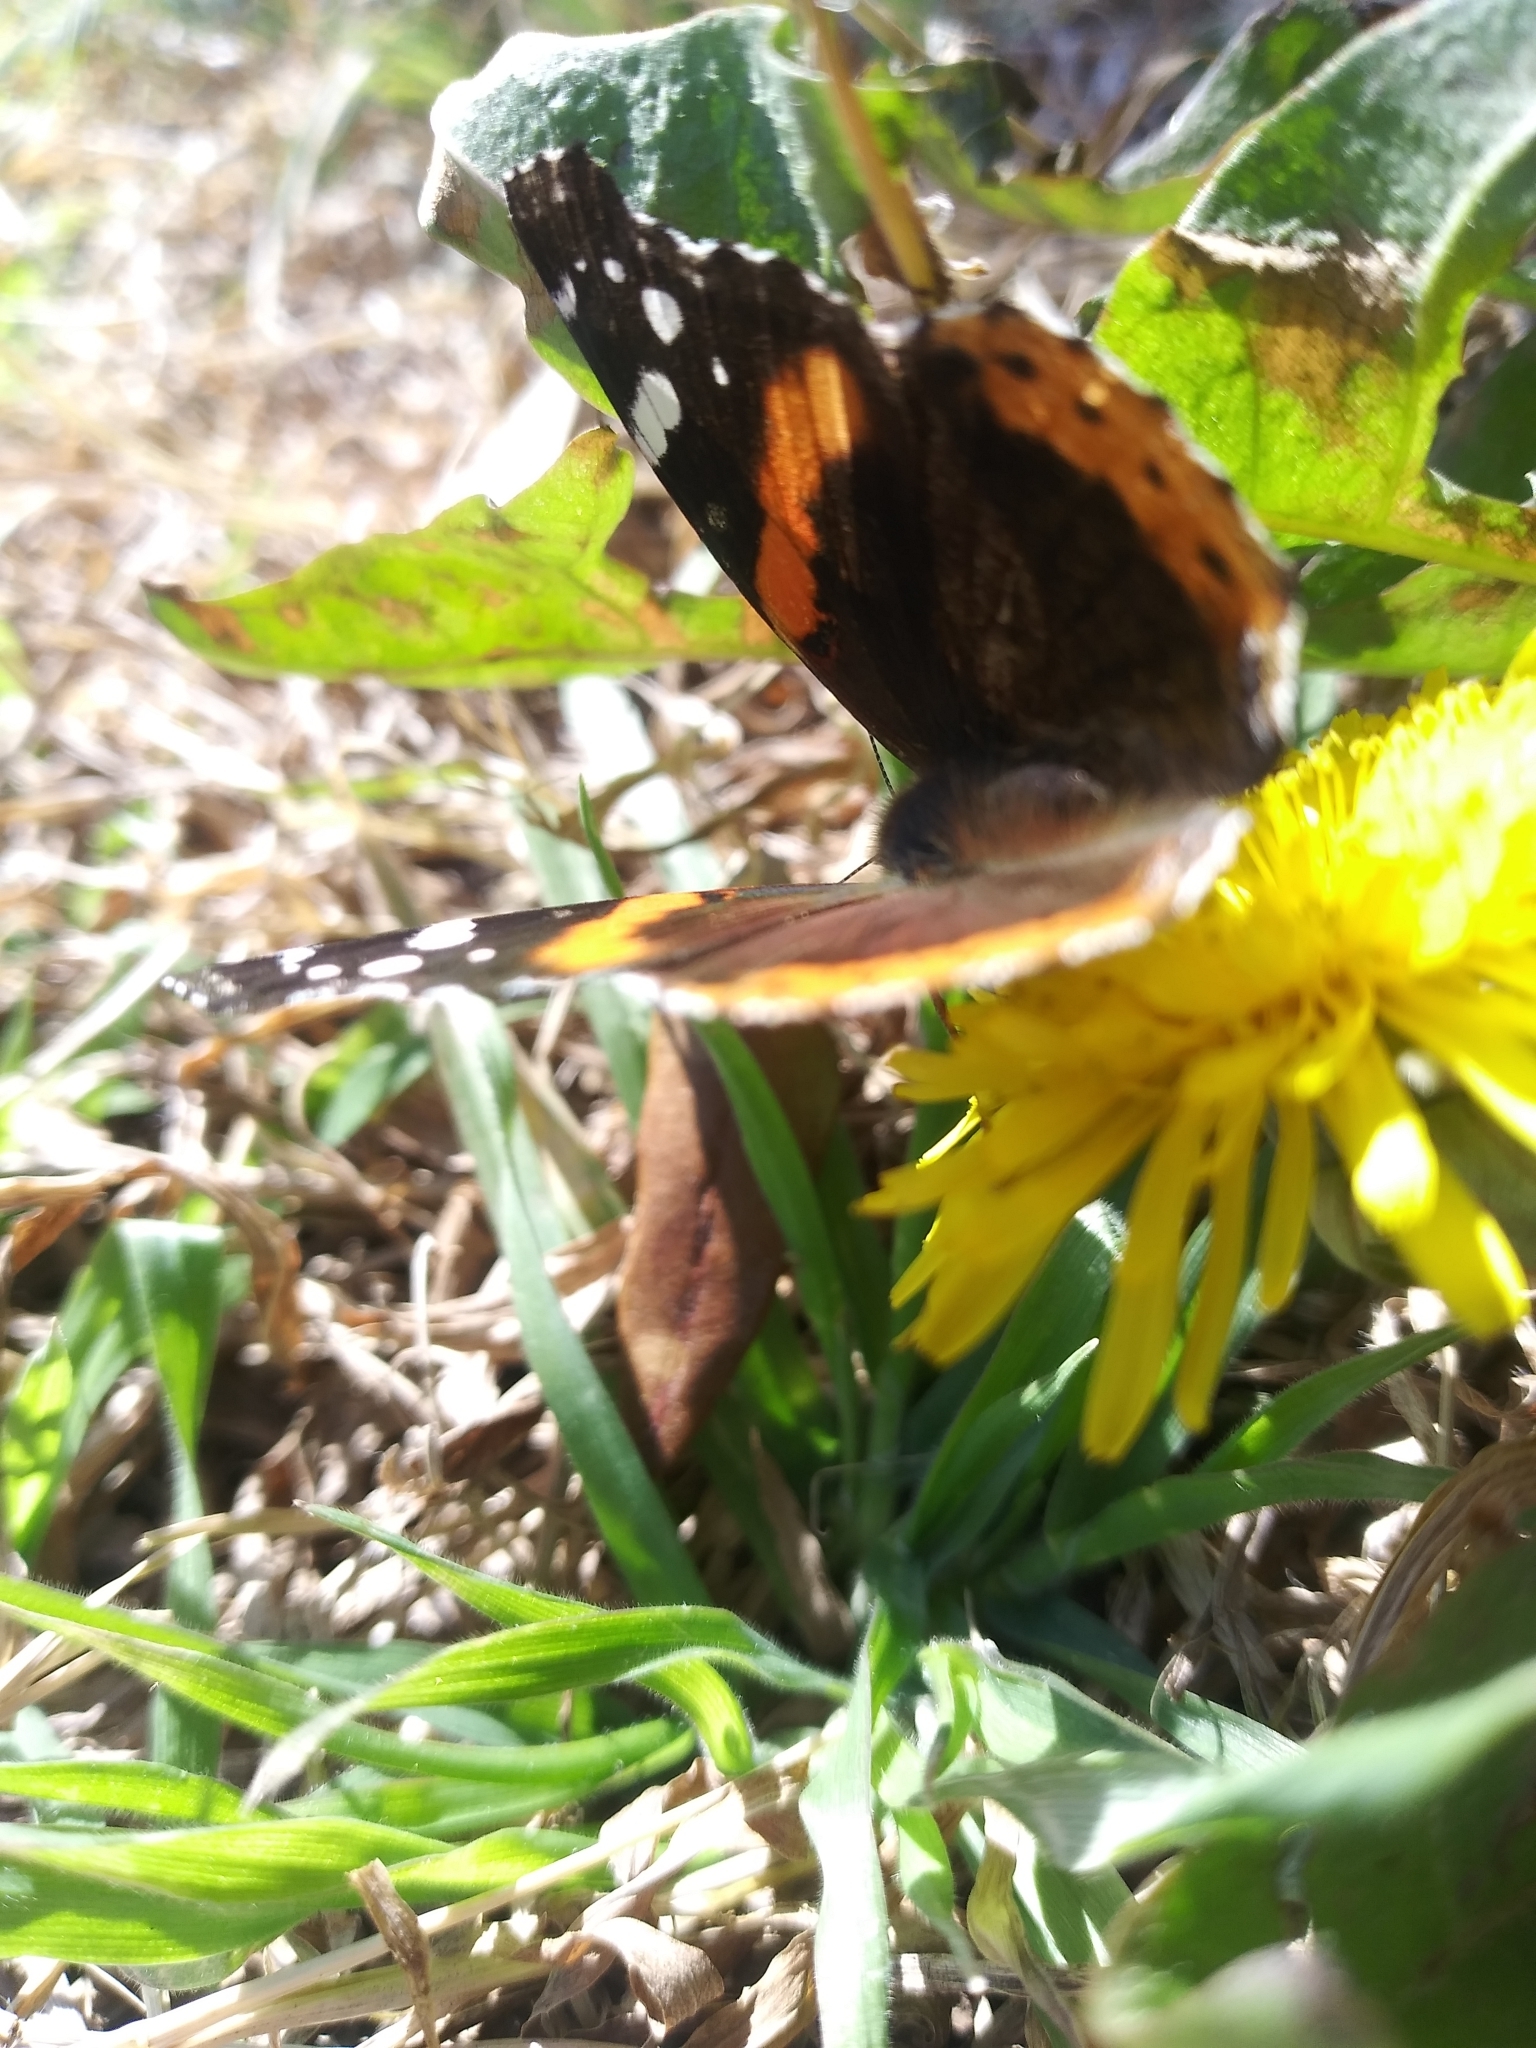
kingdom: Animalia
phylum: Arthropoda
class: Insecta
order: Lepidoptera
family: Nymphalidae
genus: Vanessa
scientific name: Vanessa atalanta
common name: Red admiral
